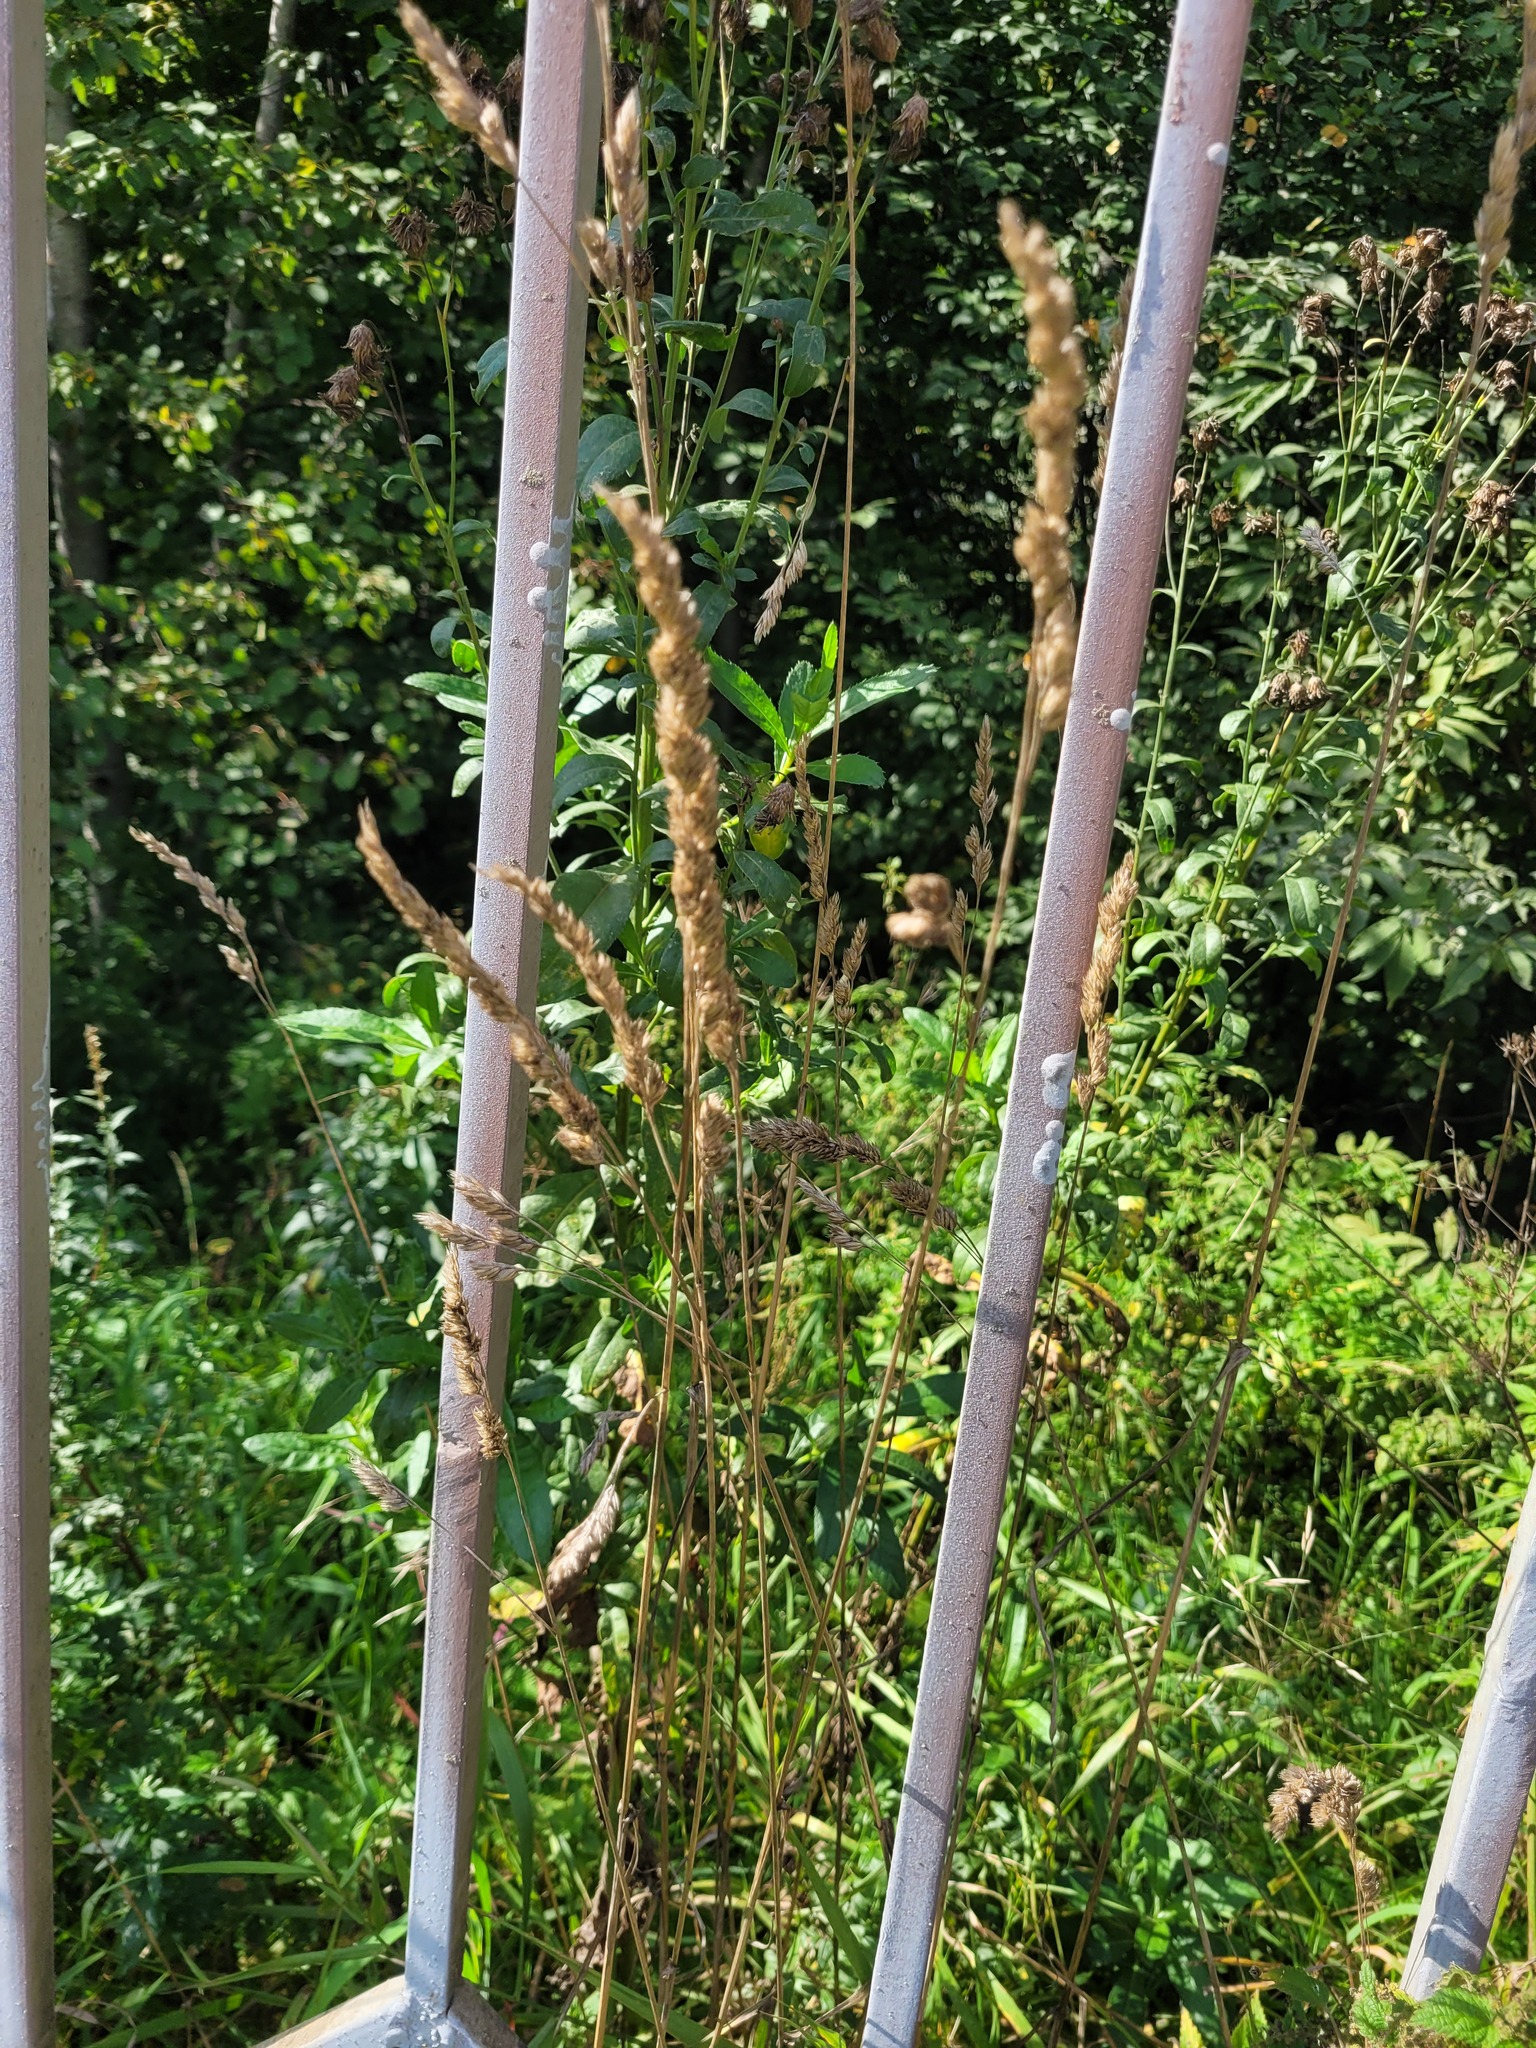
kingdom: Plantae
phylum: Tracheophyta
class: Liliopsida
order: Poales
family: Poaceae
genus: Dactylis
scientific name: Dactylis glomerata
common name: Orchardgrass
